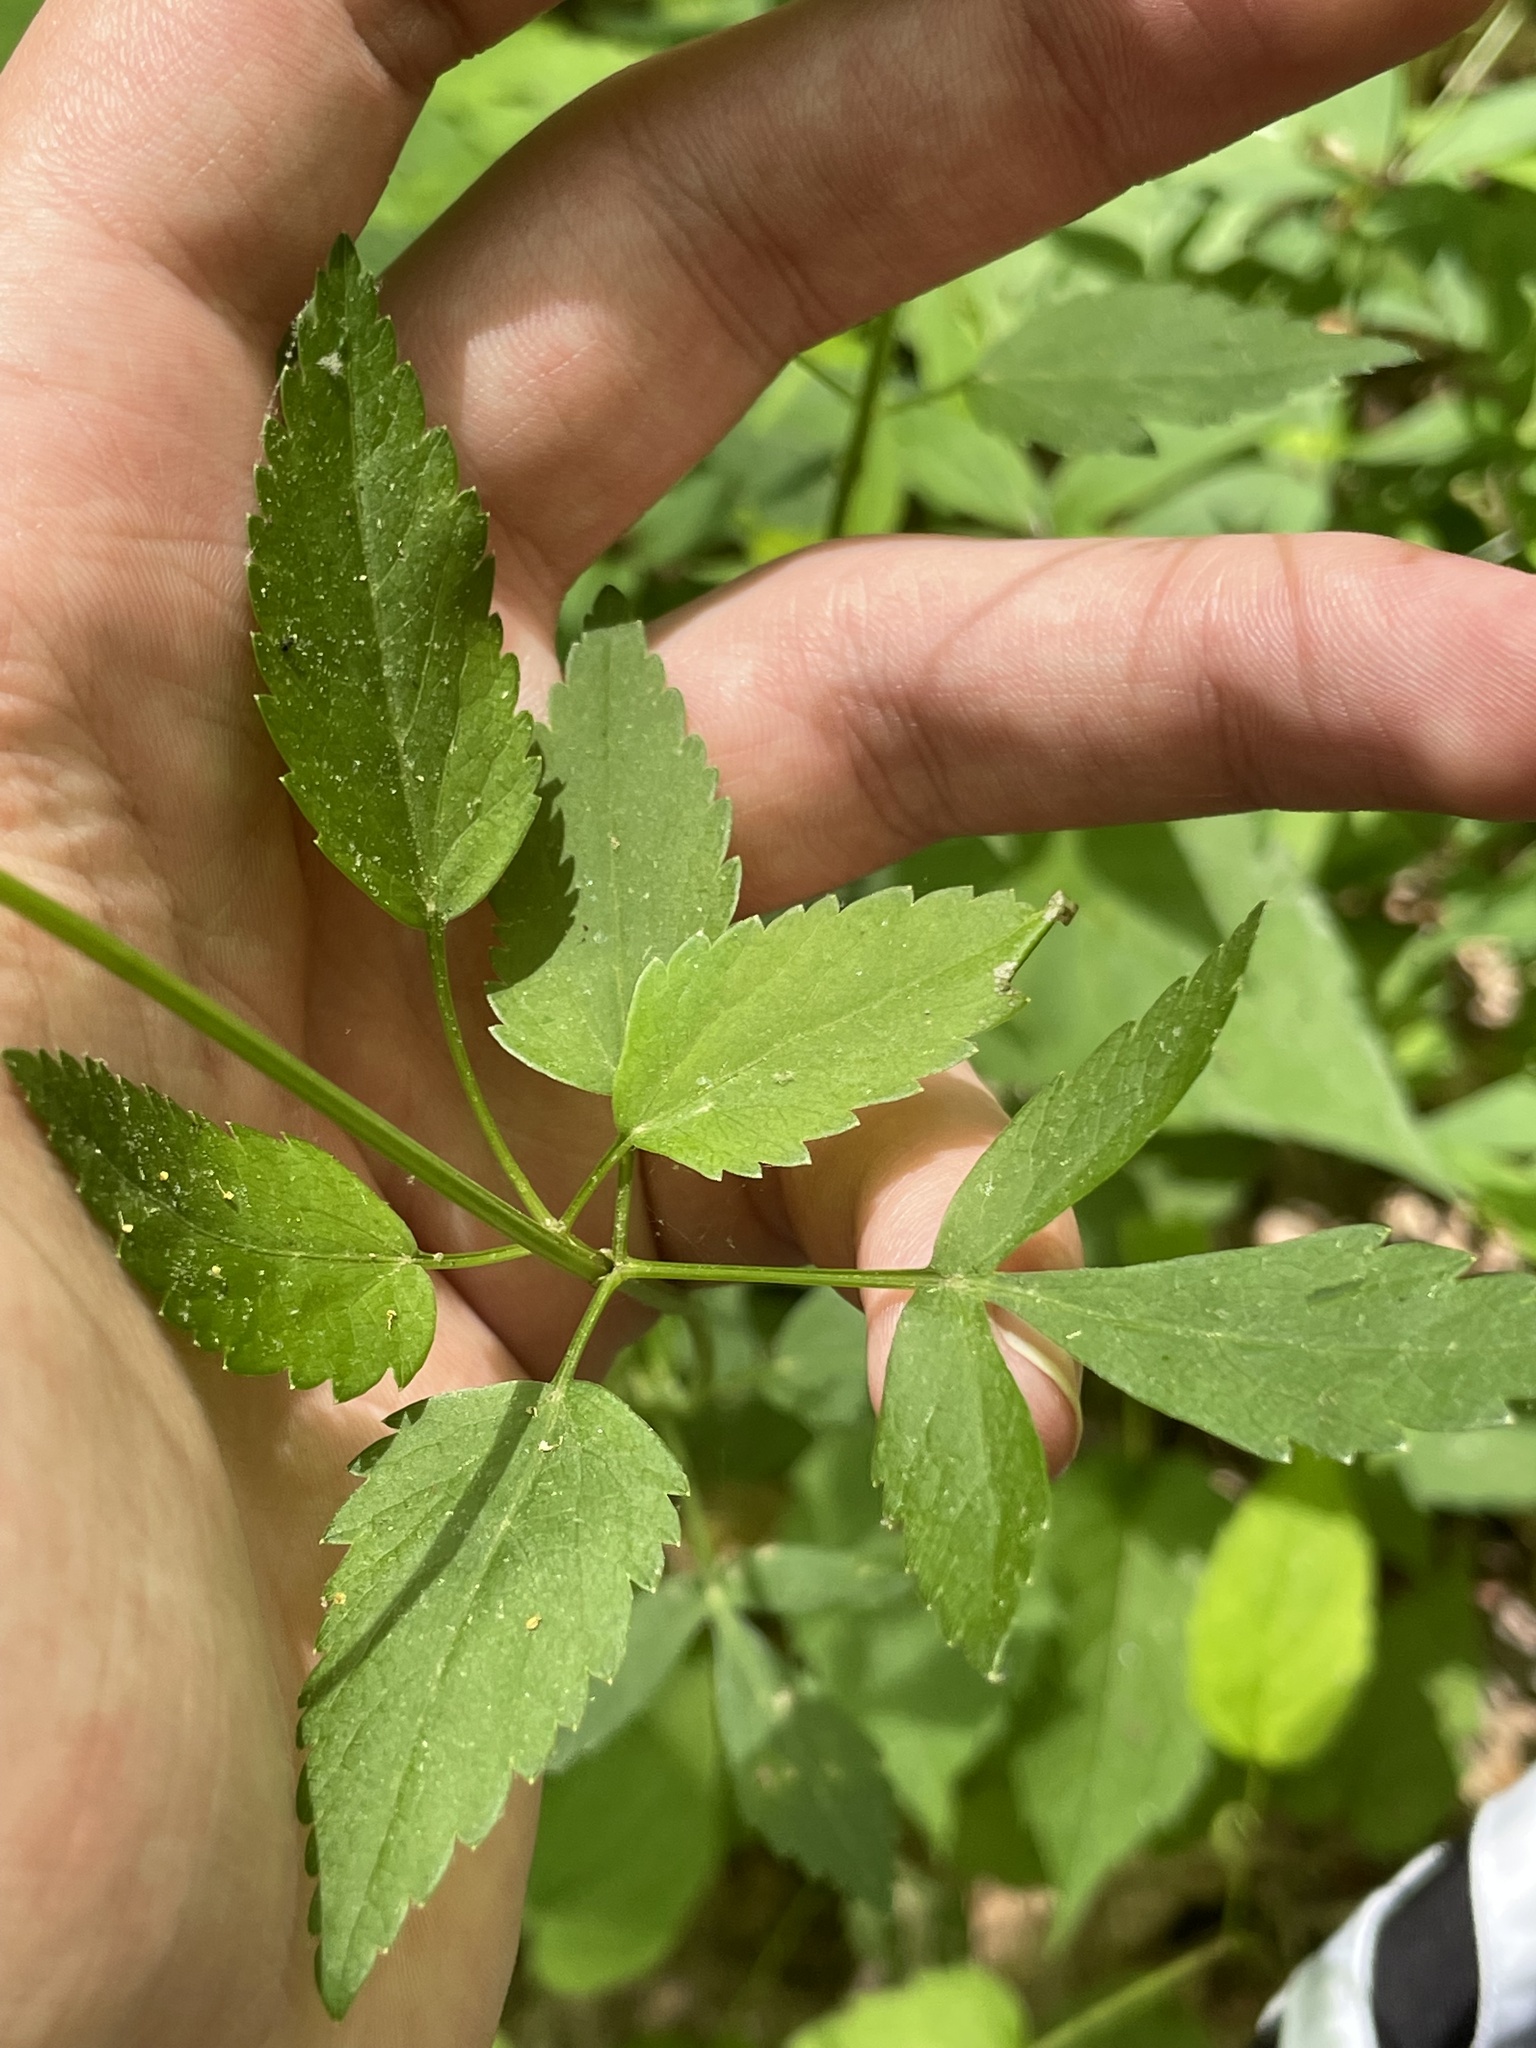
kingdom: Plantae
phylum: Tracheophyta
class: Magnoliopsida
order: Apiales
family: Apiaceae
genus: Thaspium
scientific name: Thaspium trifoliatum
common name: Purple meadow-parsnip
